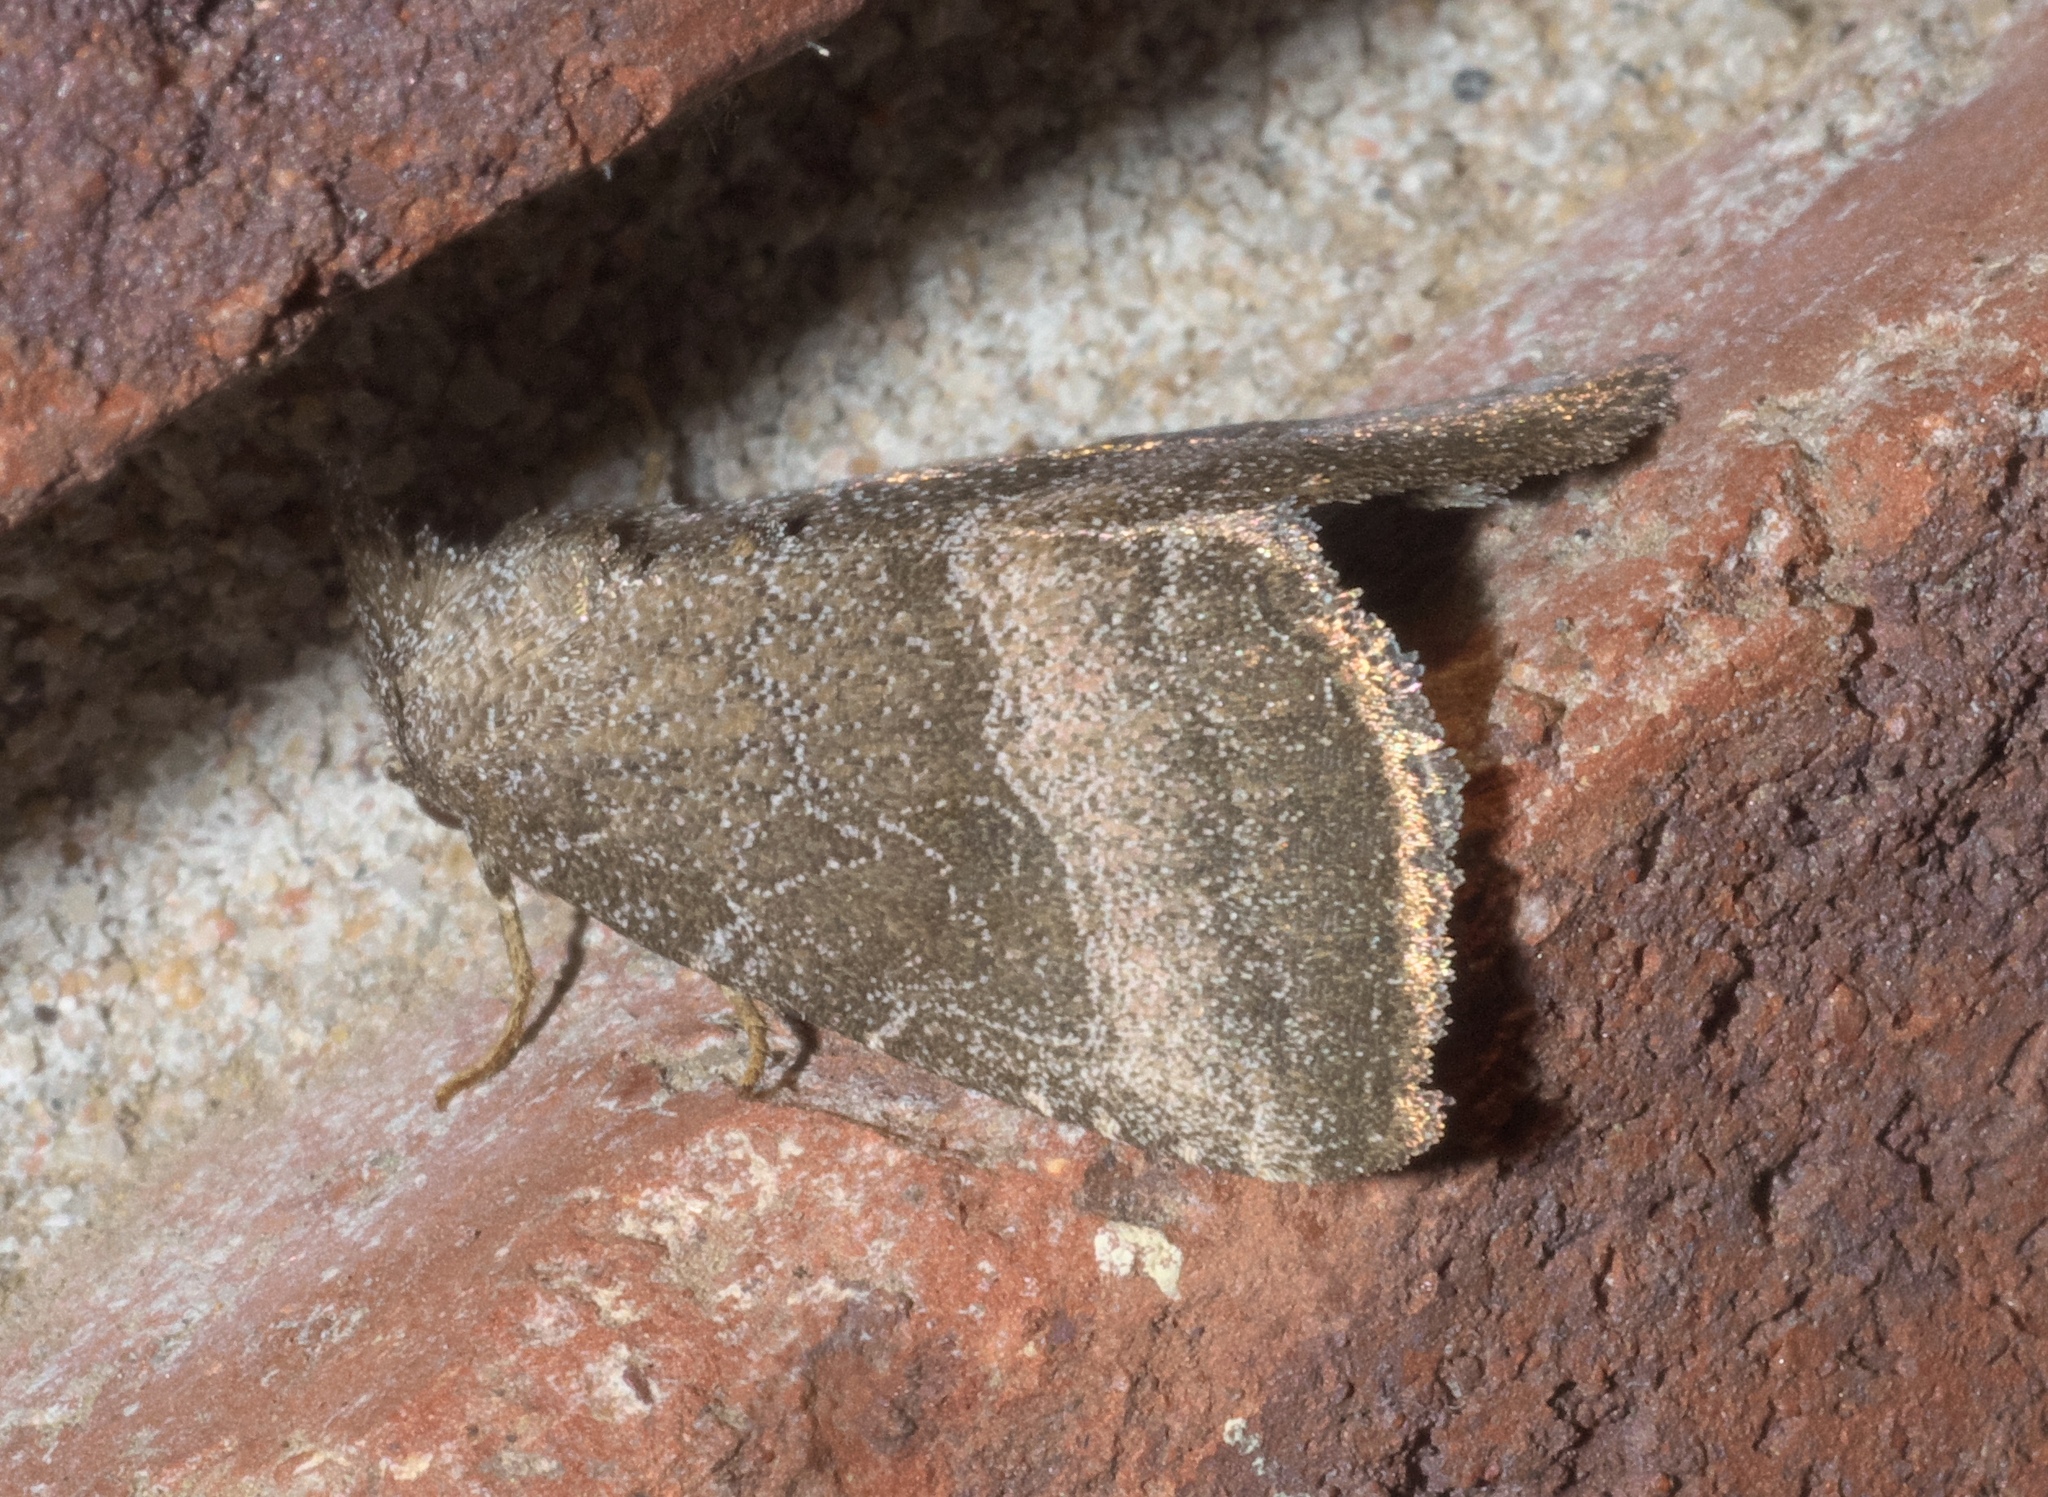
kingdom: Animalia
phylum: Arthropoda
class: Insecta
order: Lepidoptera
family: Noctuidae
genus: Ogdoconta
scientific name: Ogdoconta cinereola
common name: Common pinkband
